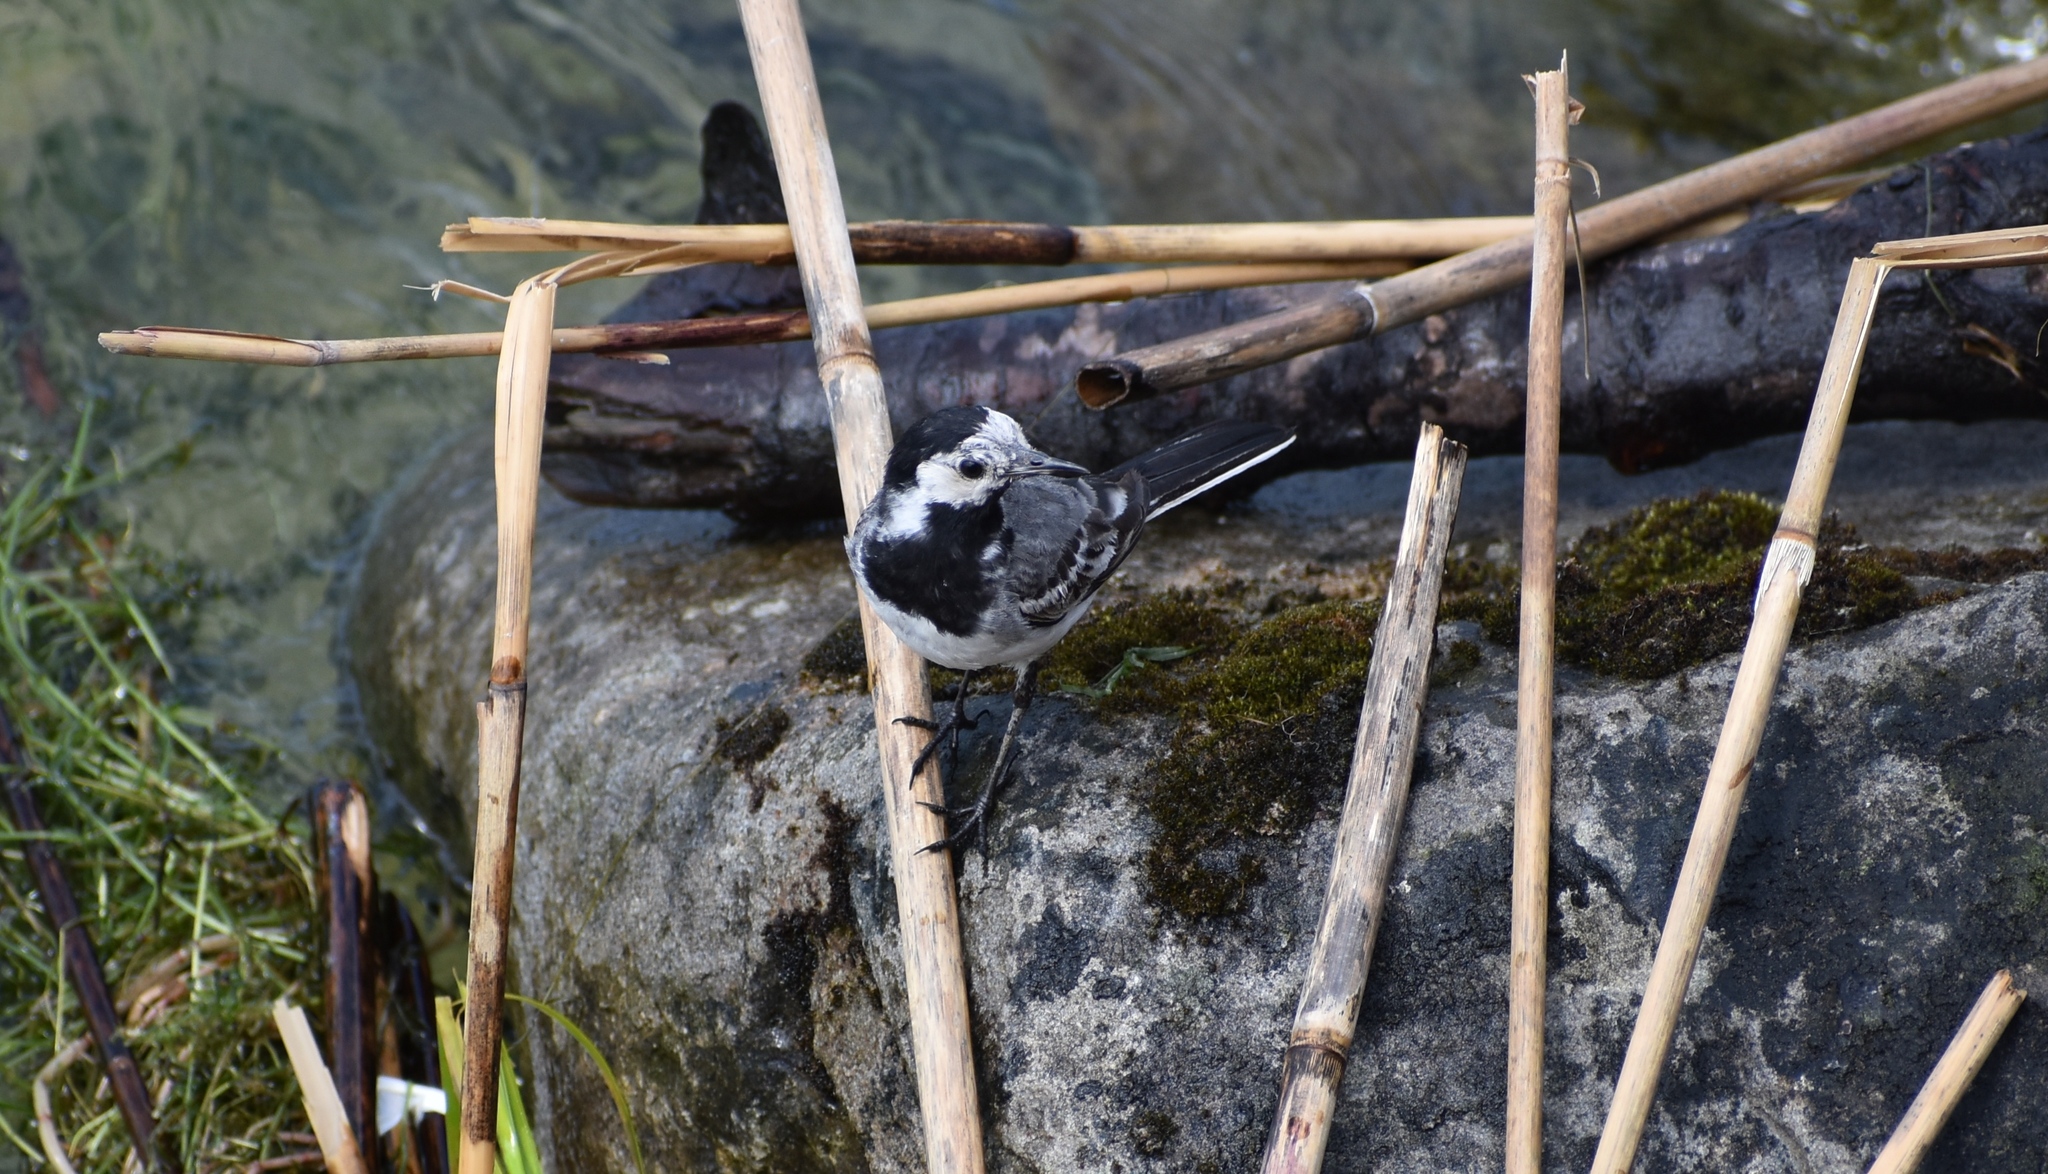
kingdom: Animalia
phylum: Chordata
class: Aves
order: Passeriformes
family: Motacillidae
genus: Motacilla
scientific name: Motacilla alba
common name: White wagtail
